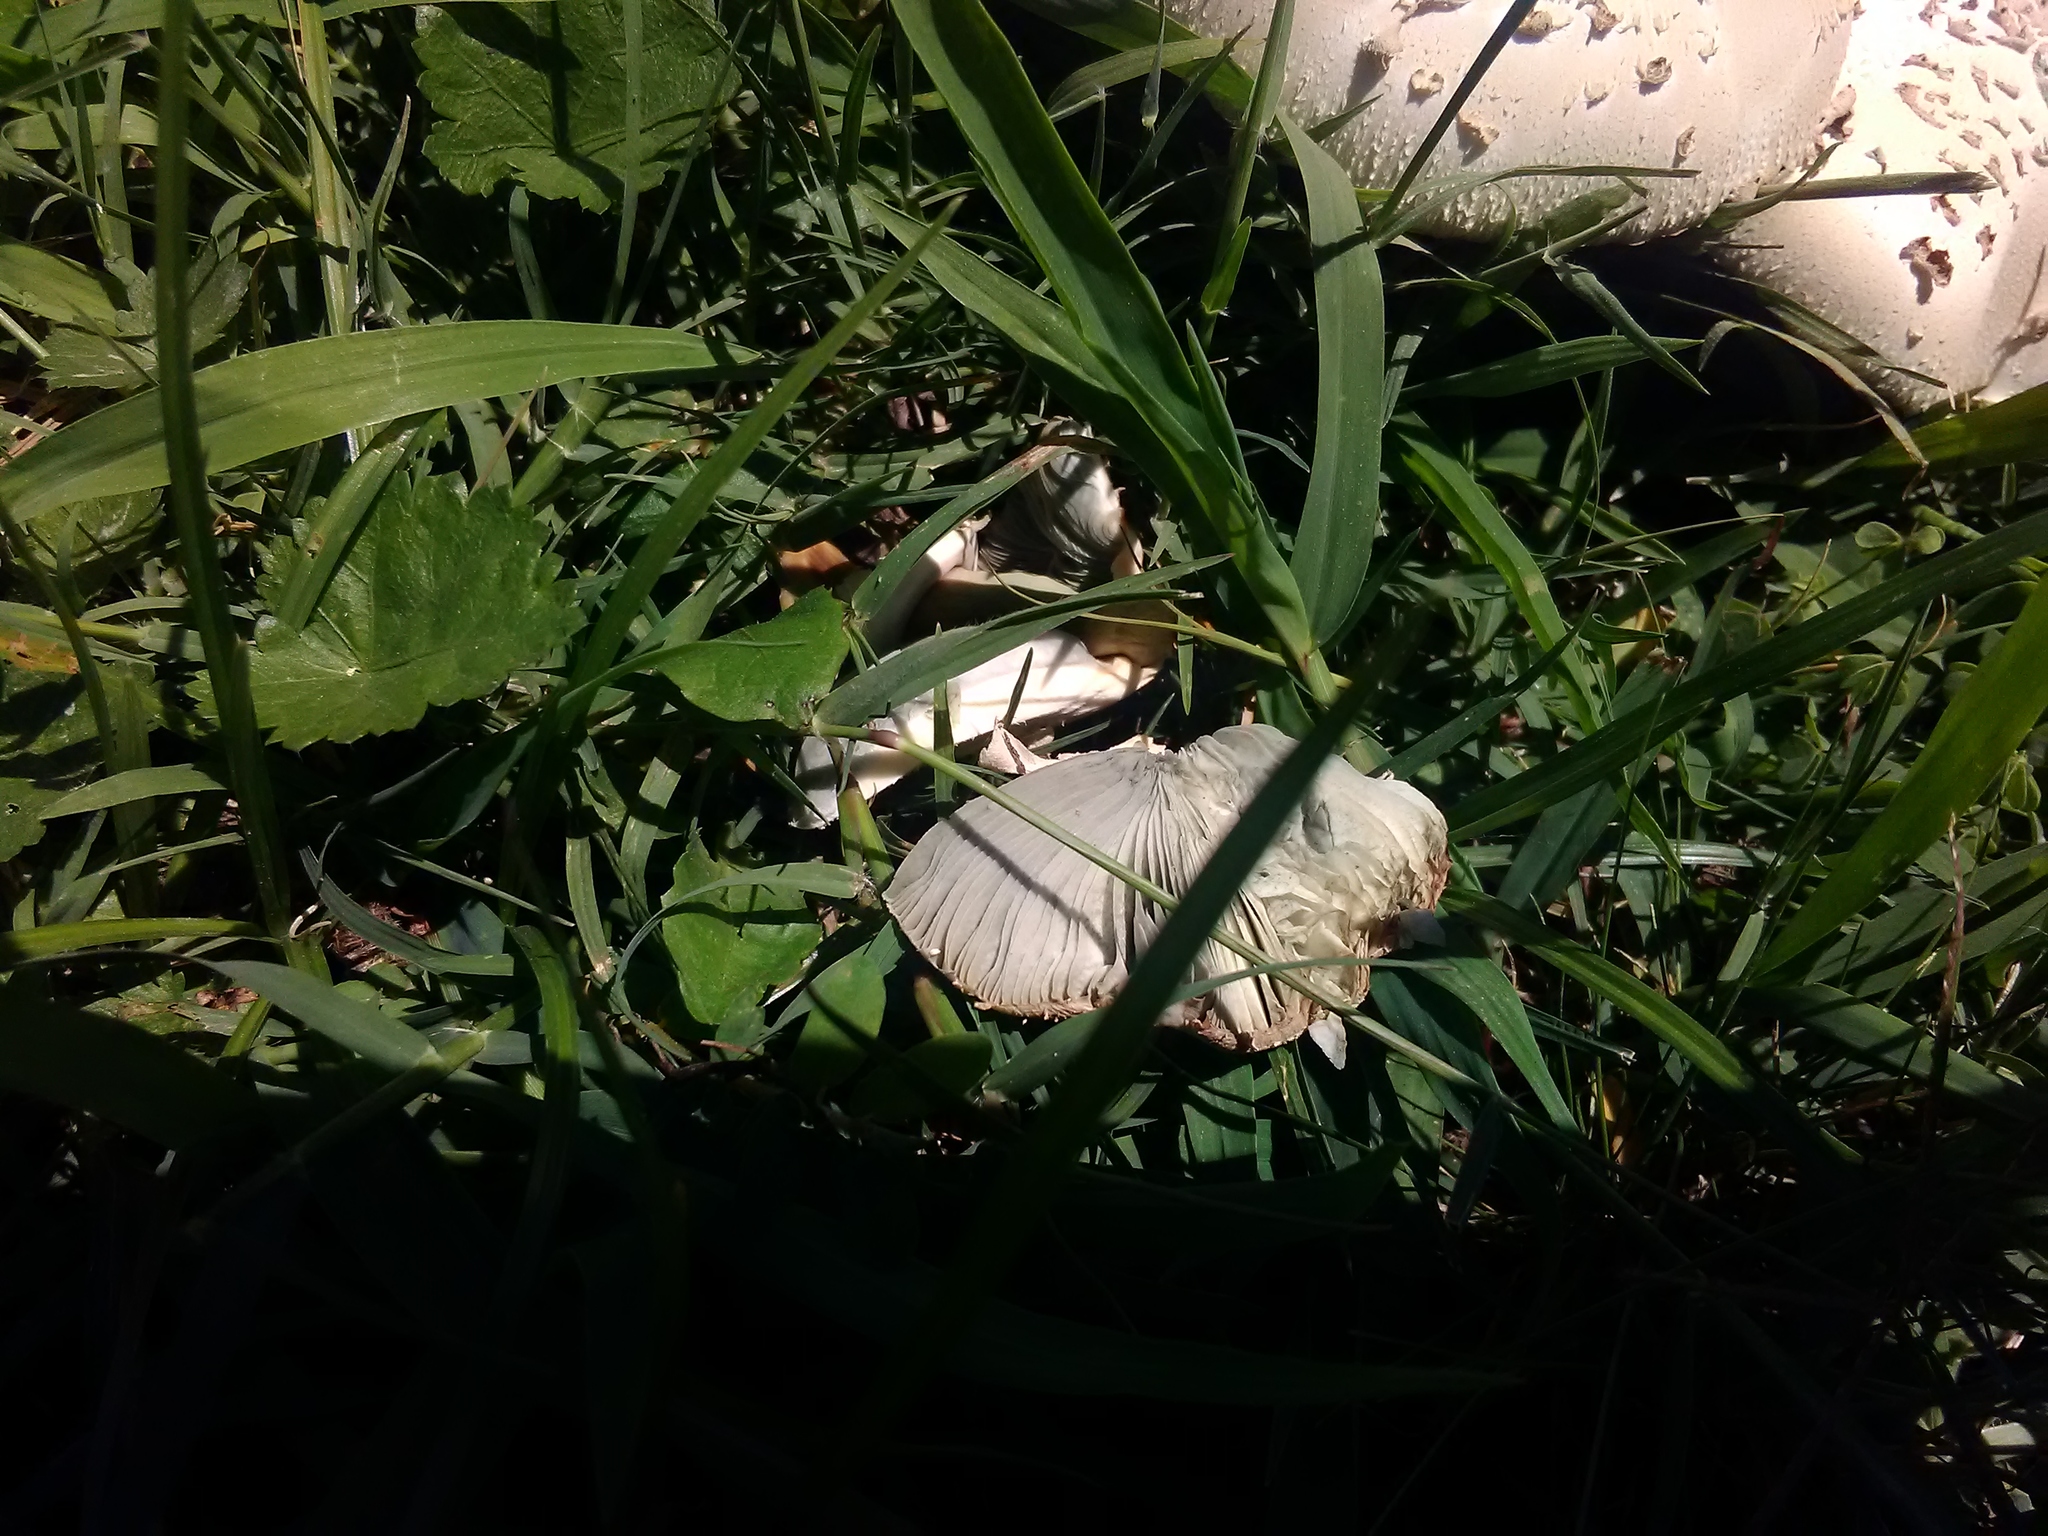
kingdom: Fungi
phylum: Basidiomycota
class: Agaricomycetes
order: Agaricales
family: Agaricaceae
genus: Chlorophyllum
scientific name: Chlorophyllum molybdites
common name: False parasol
